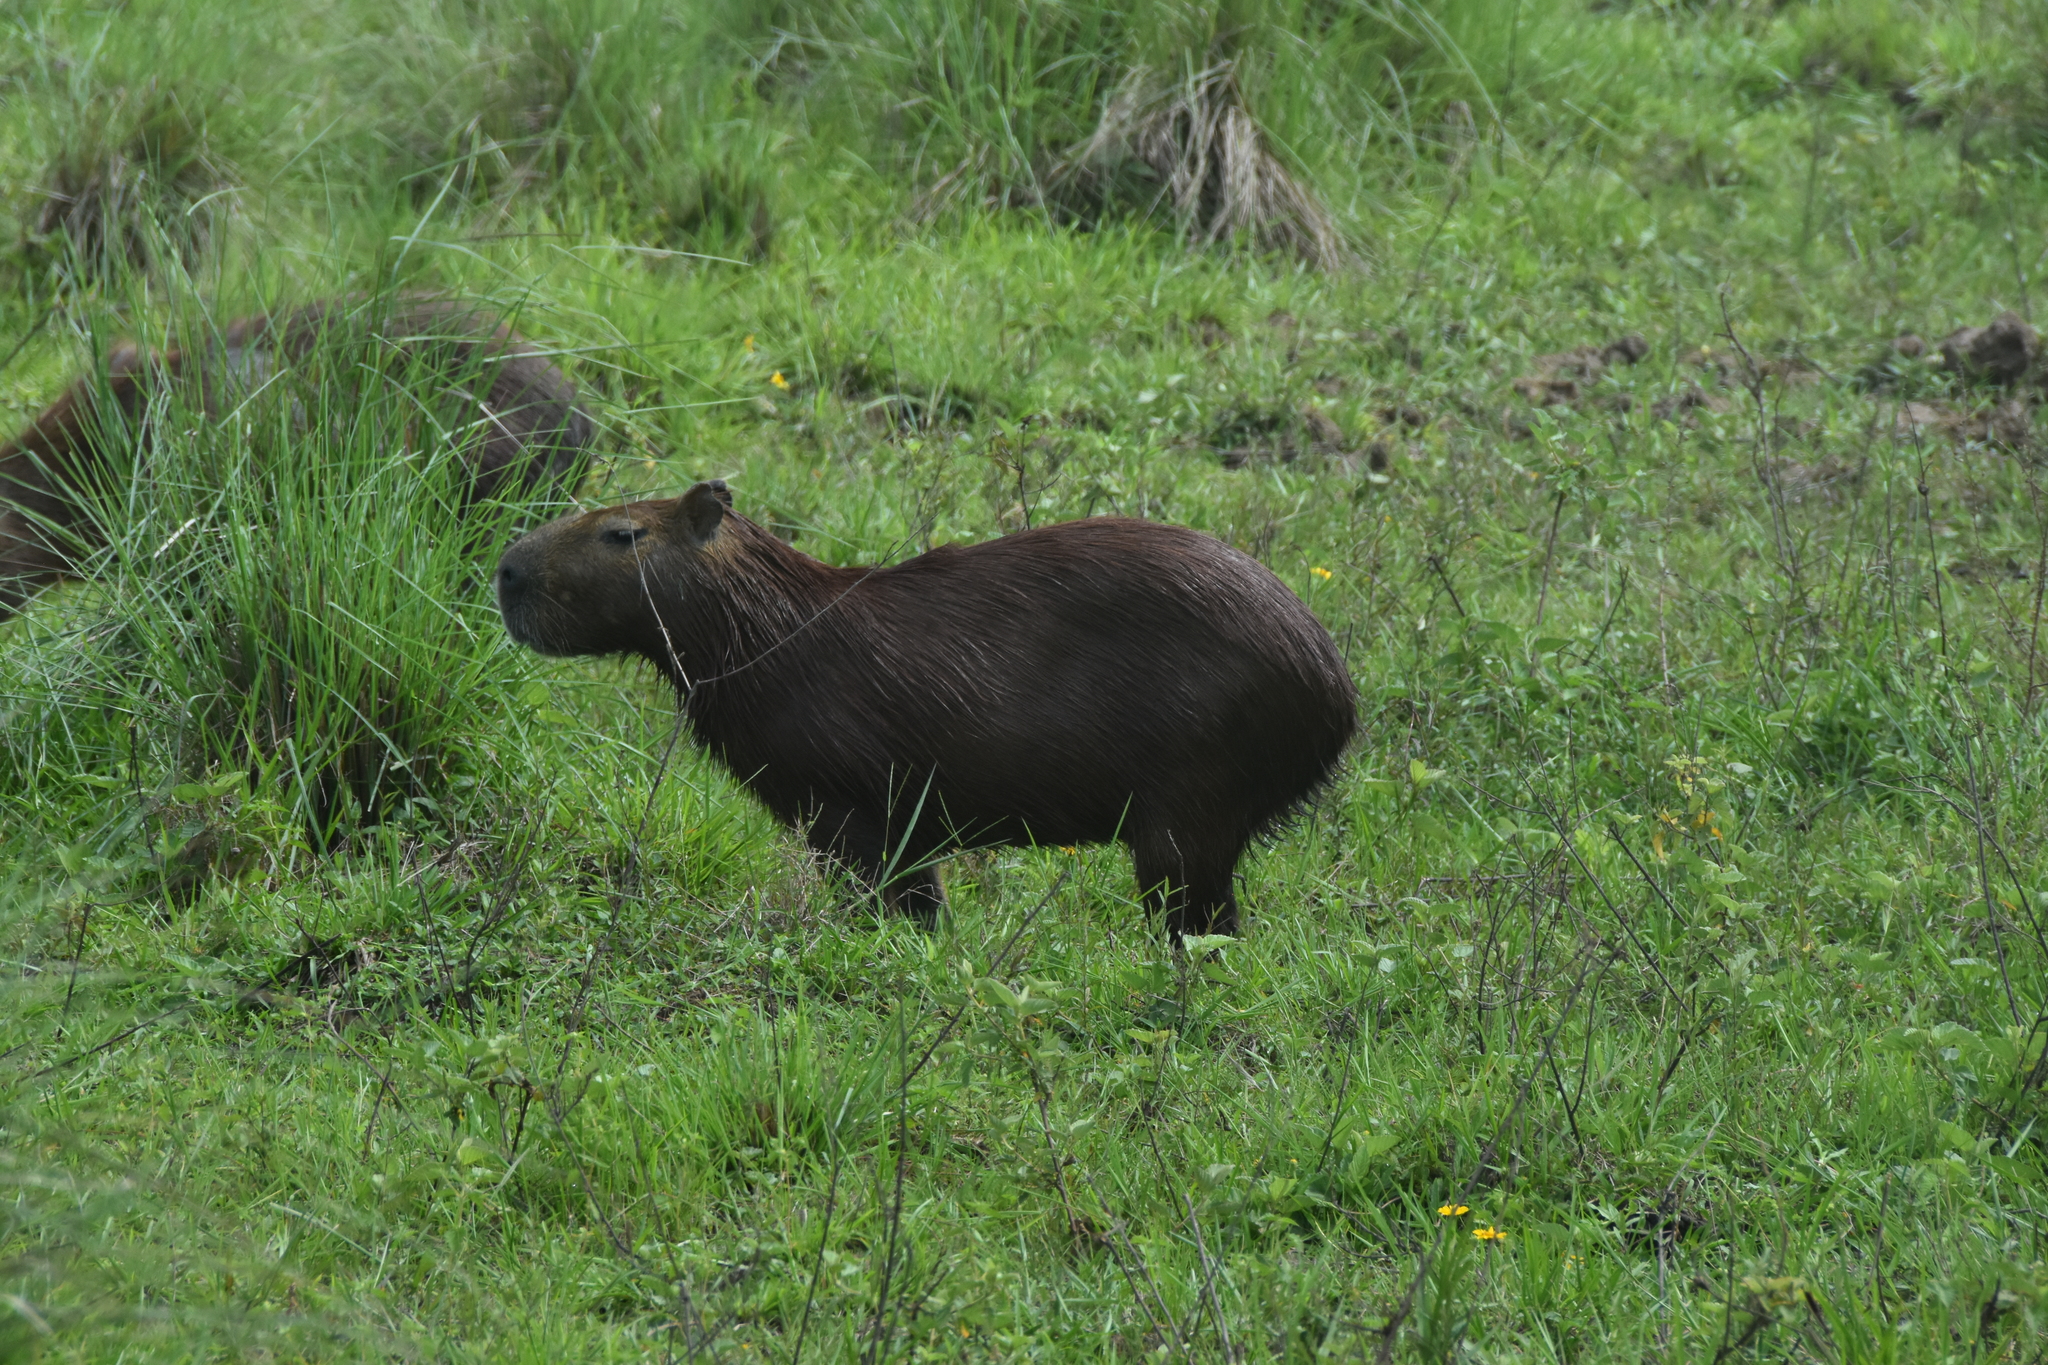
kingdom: Animalia
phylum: Chordata
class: Mammalia
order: Rodentia
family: Caviidae
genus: Hydrochoerus
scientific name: Hydrochoerus hydrochaeris
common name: Capybara
